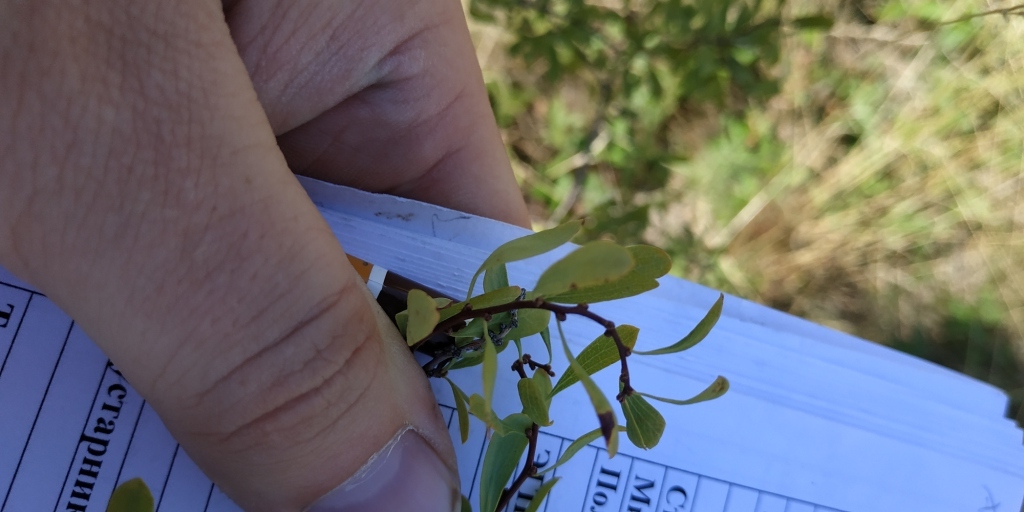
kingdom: Plantae
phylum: Tracheophyta
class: Magnoliopsida
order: Rosales
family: Rosaceae
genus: Spiraea
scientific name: Spiraea crenata
